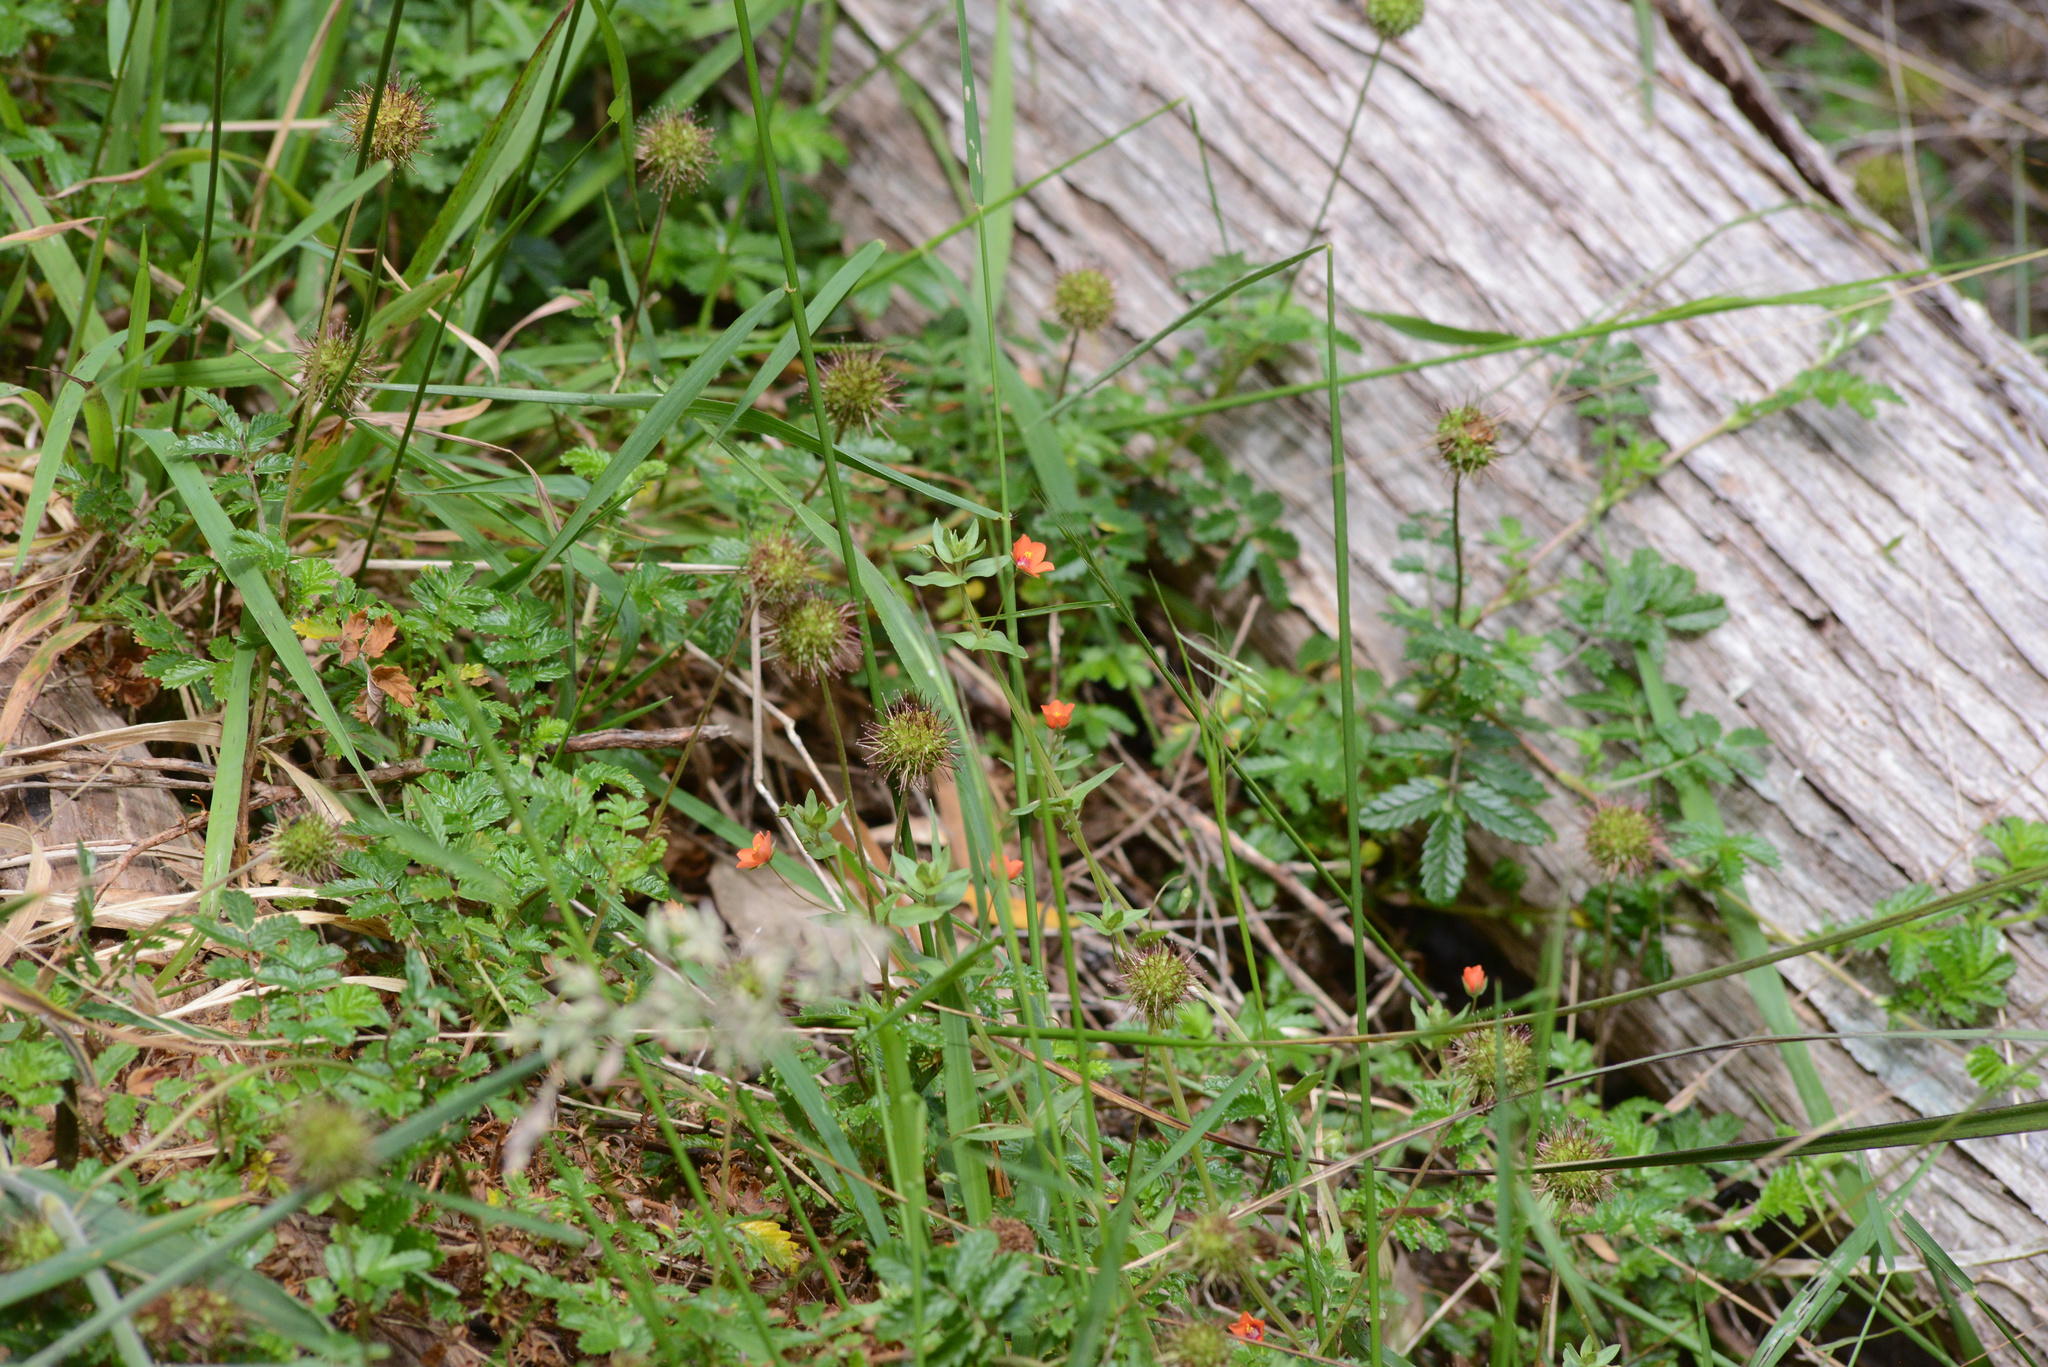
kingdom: Plantae
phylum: Tracheophyta
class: Magnoliopsida
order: Rosales
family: Rosaceae
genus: Acaena
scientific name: Acaena novae-zelandiae
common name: Pirri-pirri-bur
